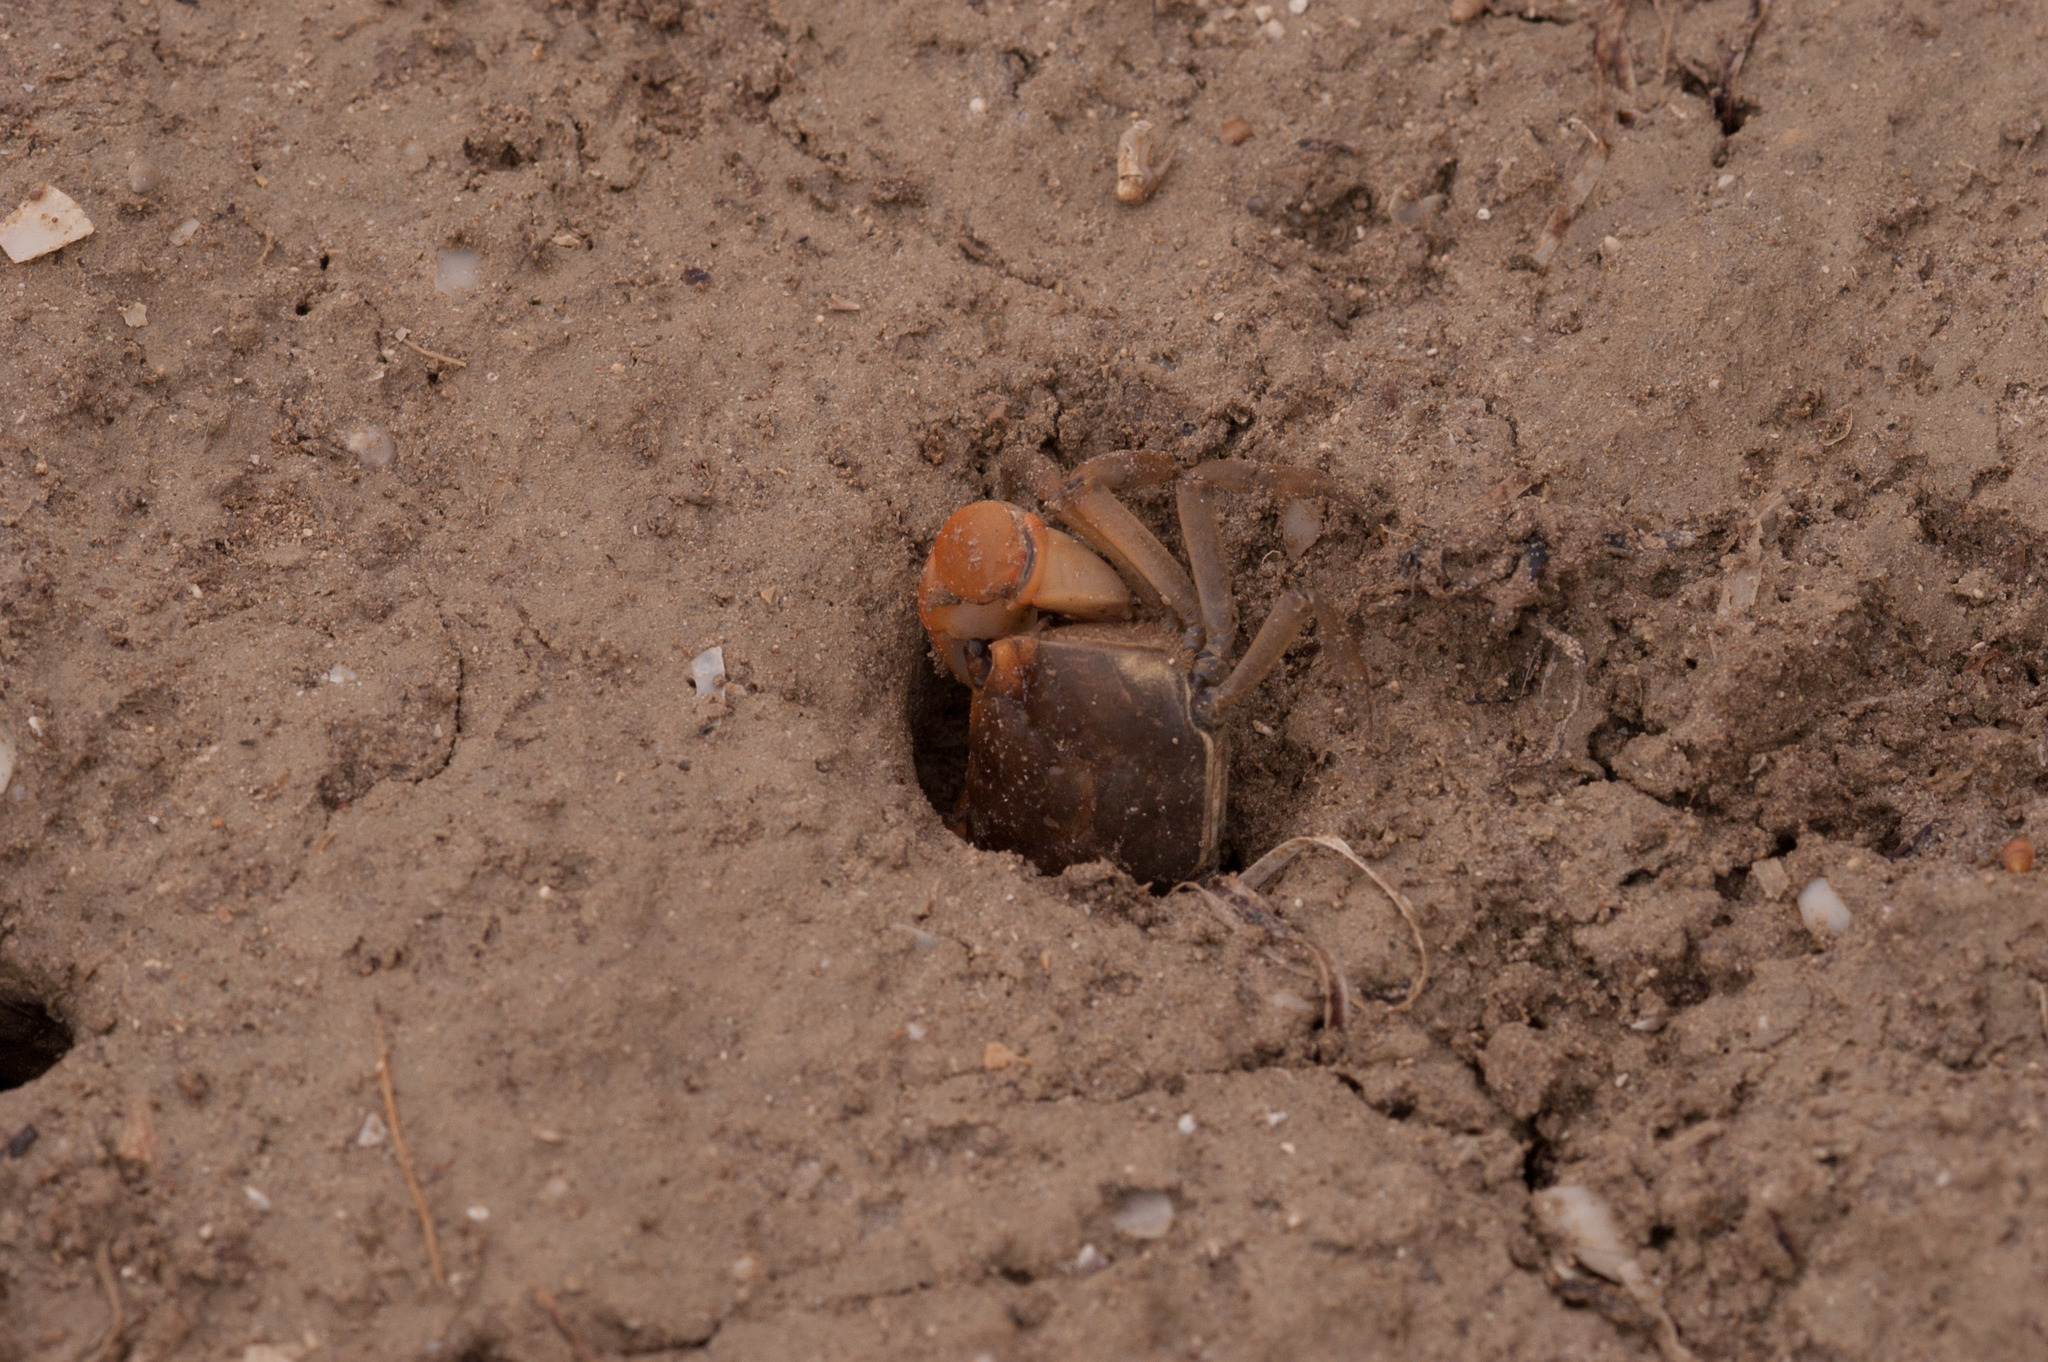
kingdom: Animalia
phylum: Arthropoda
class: Malacostraca
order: Decapoda
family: Varunidae
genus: Helograpsus
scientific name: Helograpsus haswellianus
